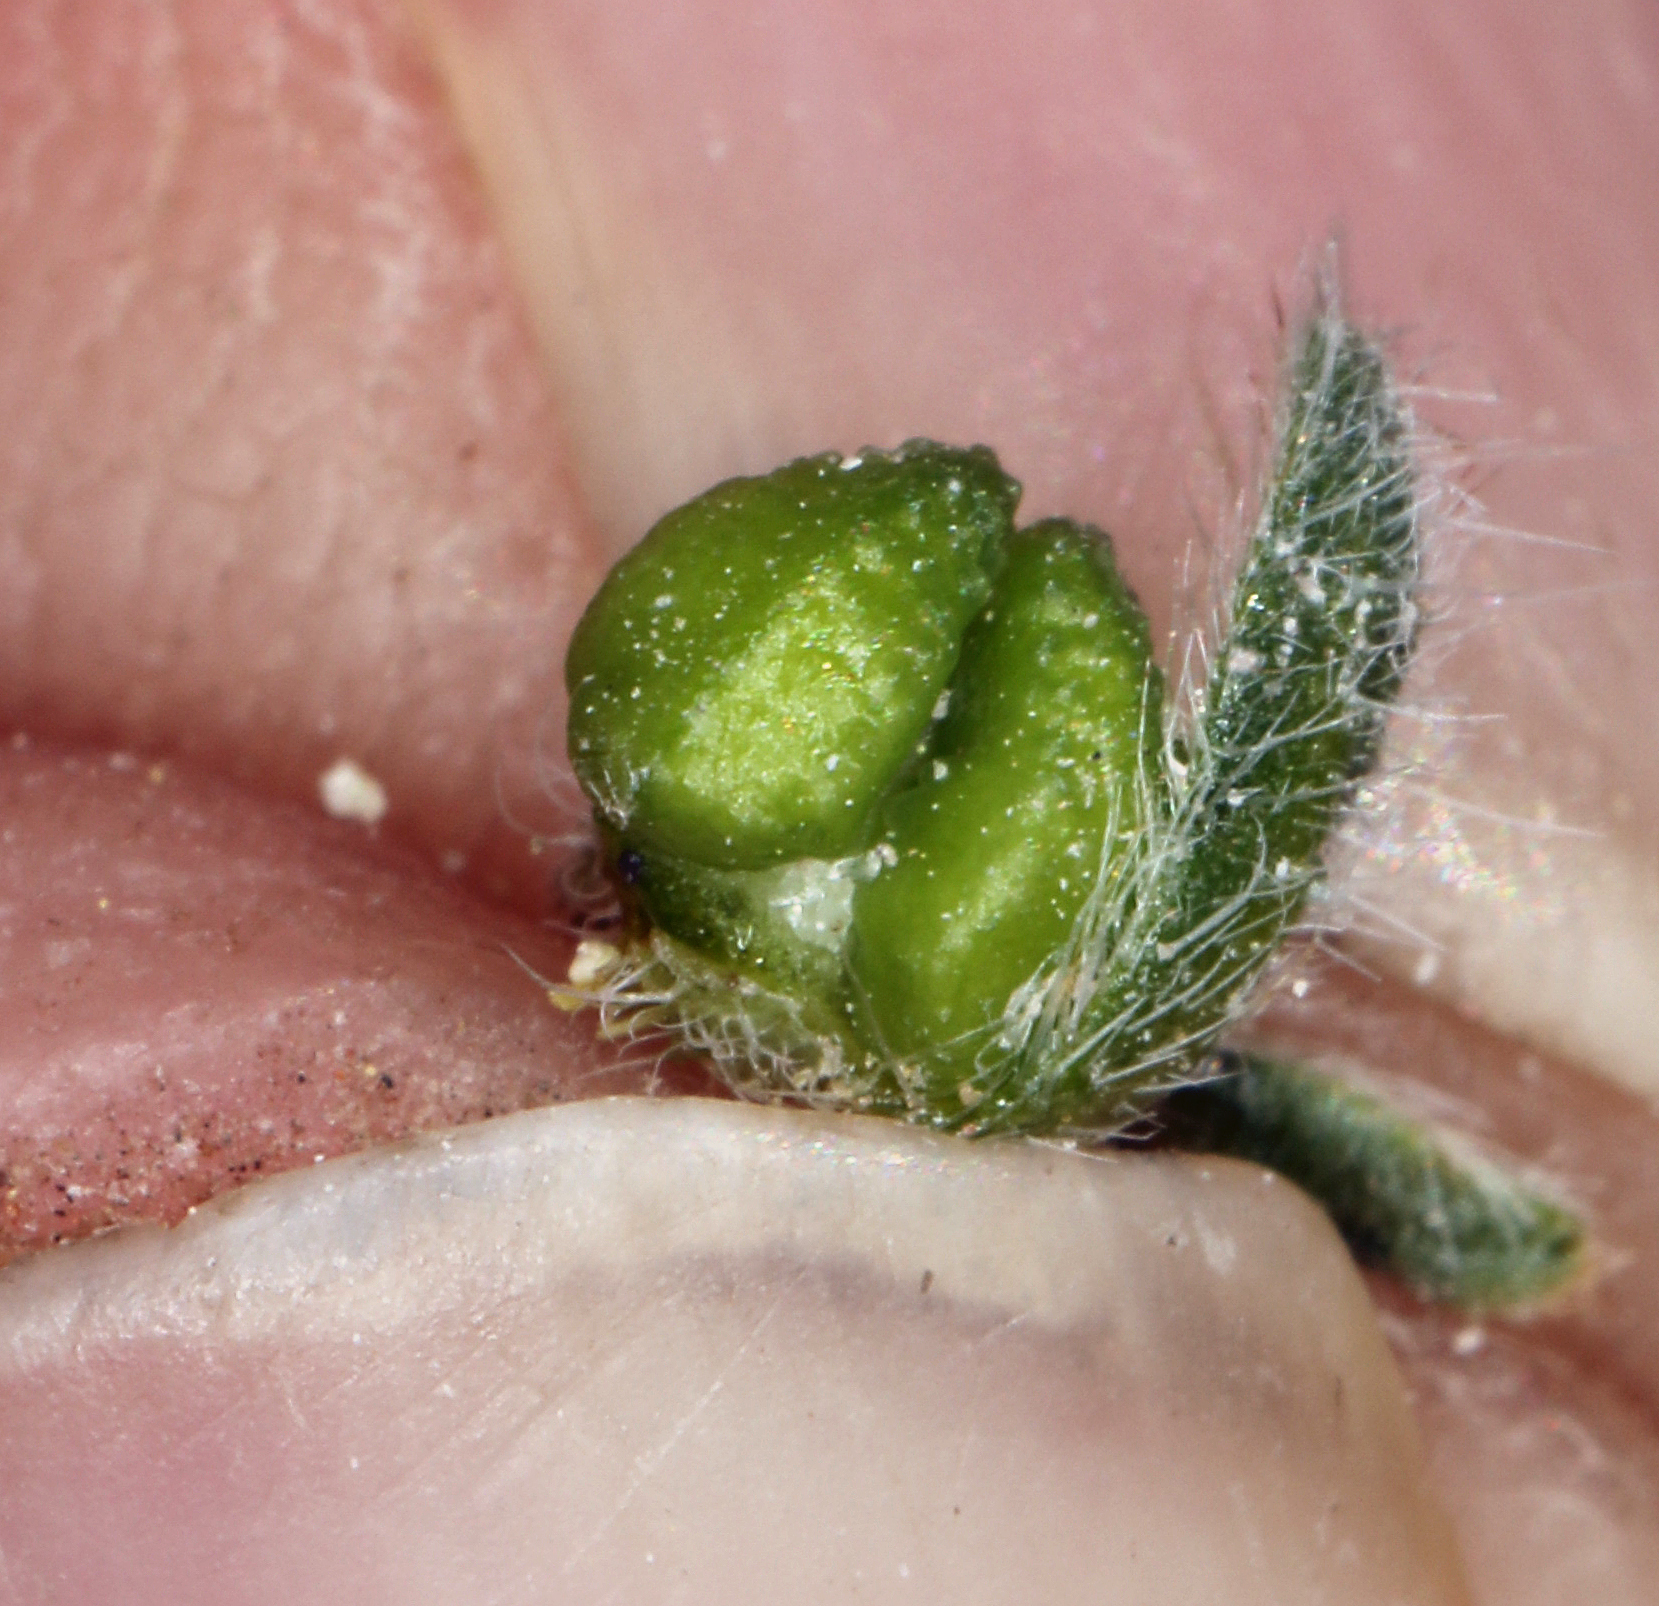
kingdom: Plantae
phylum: Tracheophyta
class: Magnoliopsida
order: Boraginales
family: Boraginaceae
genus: Amsinckiopsis
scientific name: Amsinckiopsis kingii
